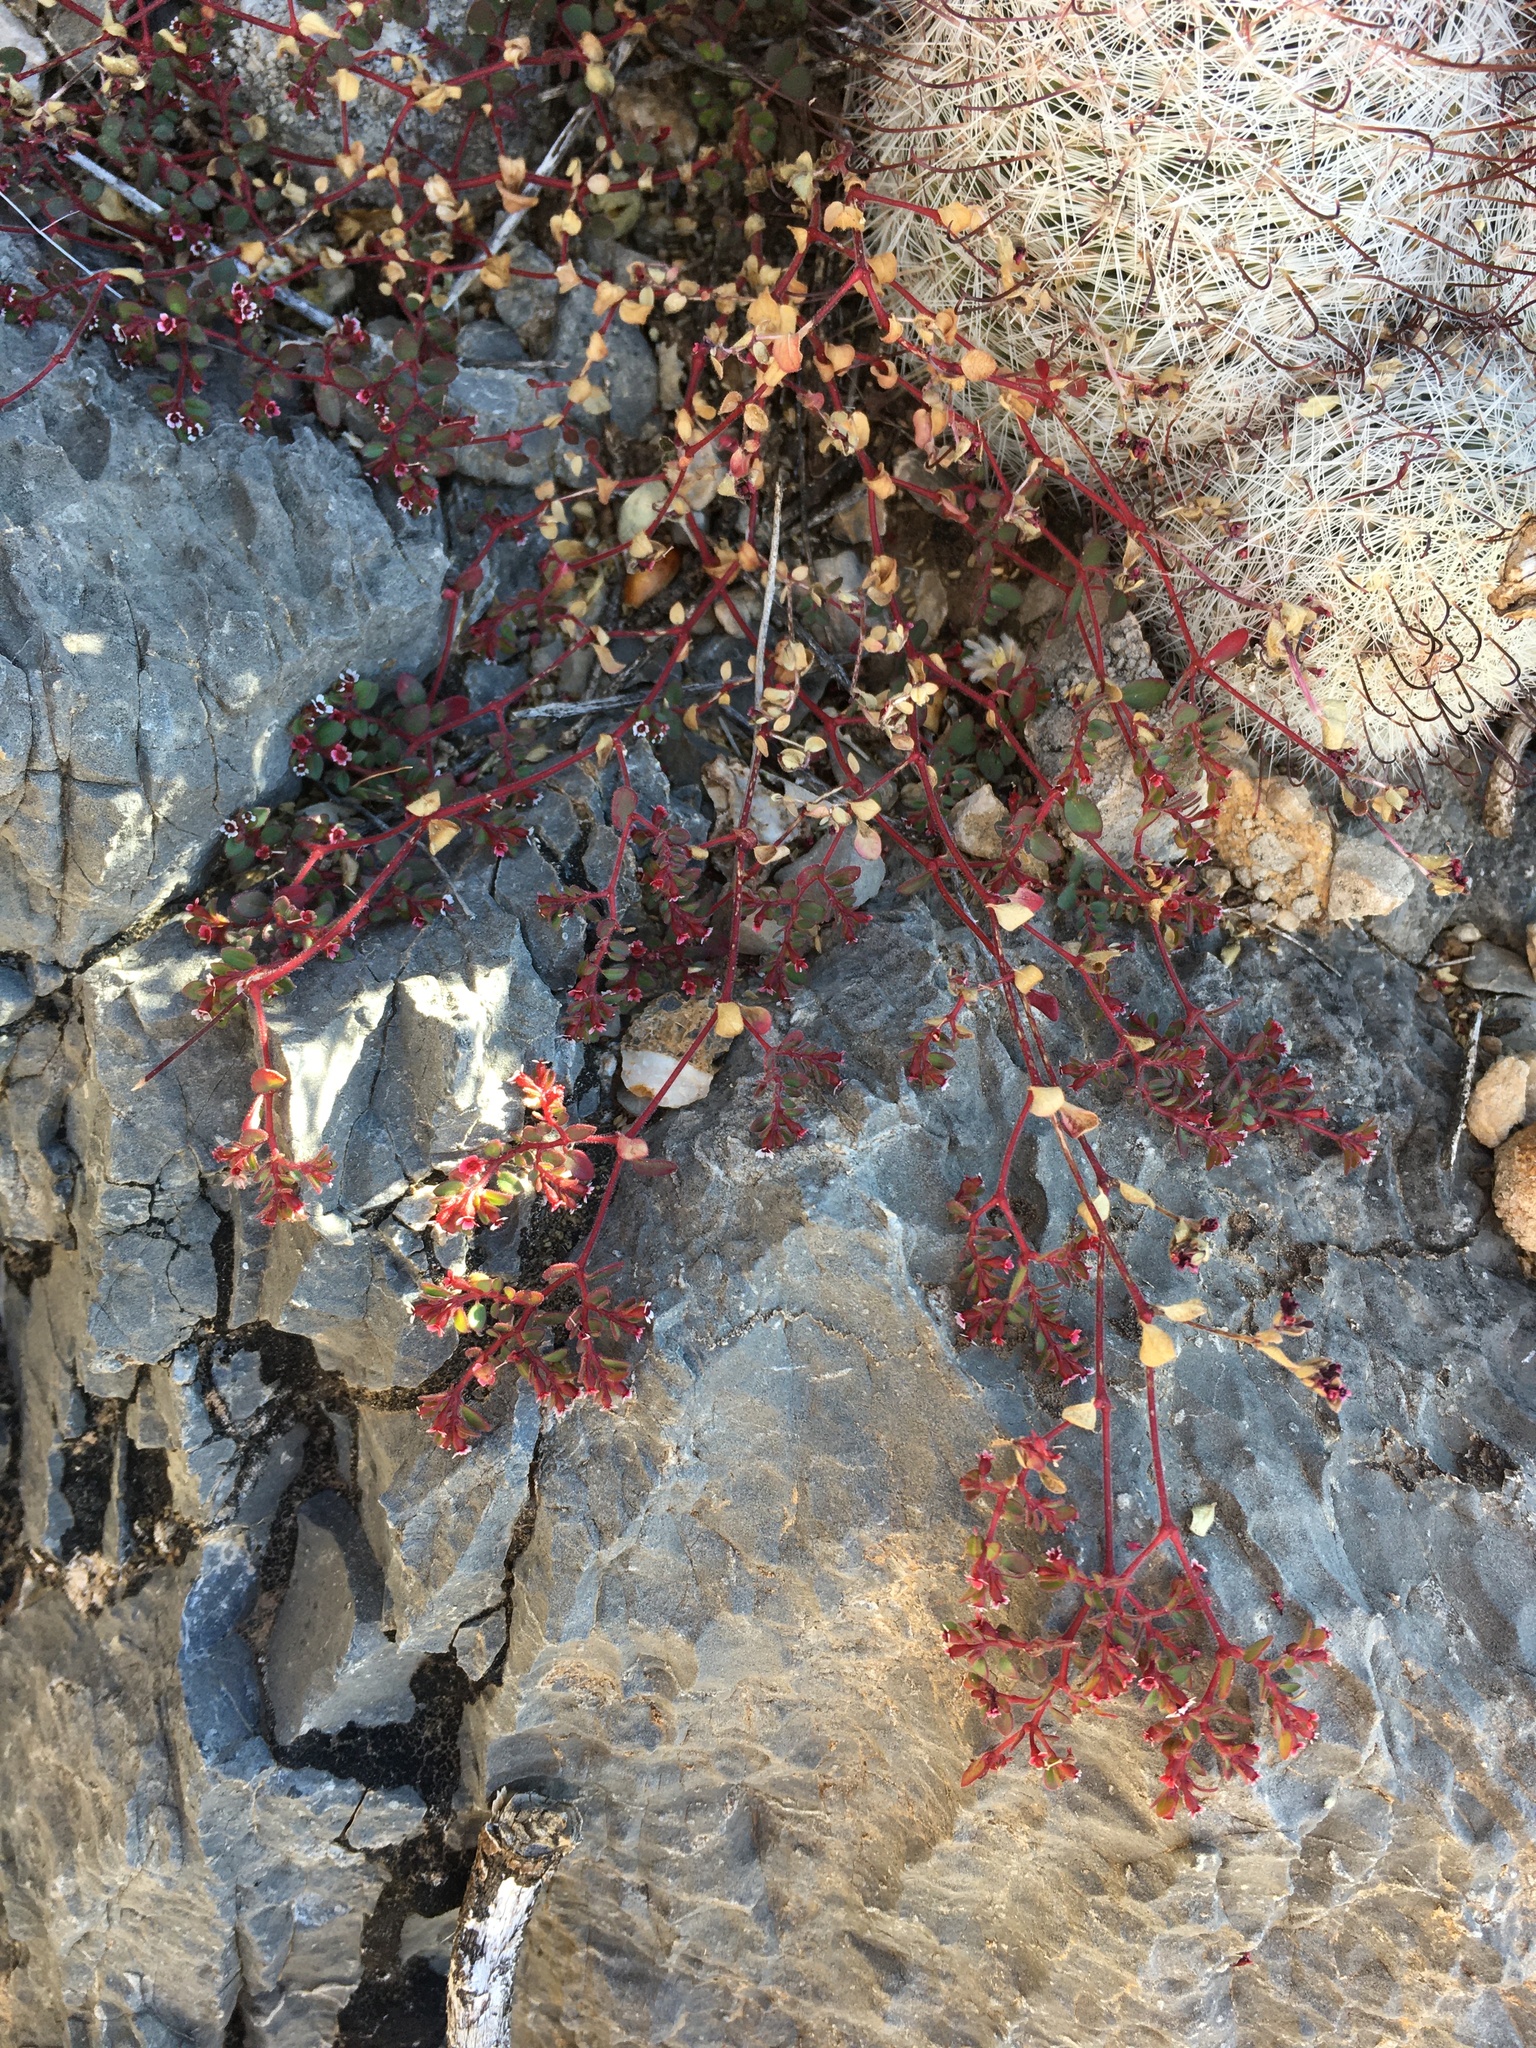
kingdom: Plantae
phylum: Tracheophyta
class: Magnoliopsida
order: Malpighiales
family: Euphorbiaceae
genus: Euphorbia
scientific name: Euphorbia arizonica
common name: Arizona spurge
